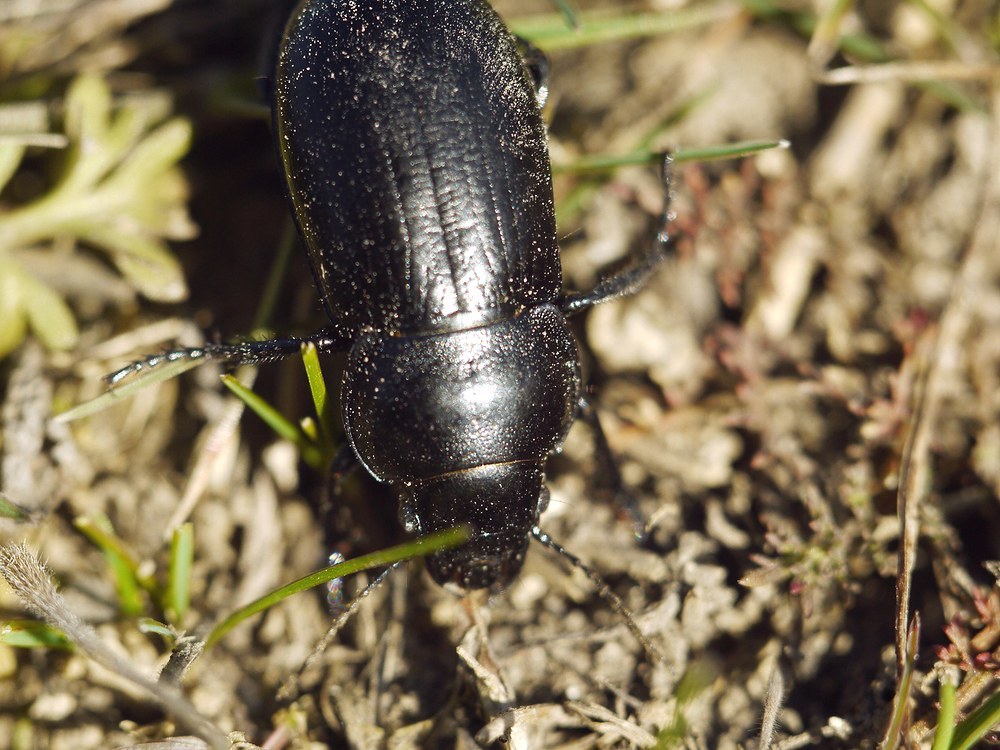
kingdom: Animalia
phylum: Arthropoda
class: Insecta
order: Coleoptera
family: Carabidae
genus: Zabrus
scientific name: Zabrus spinipes
